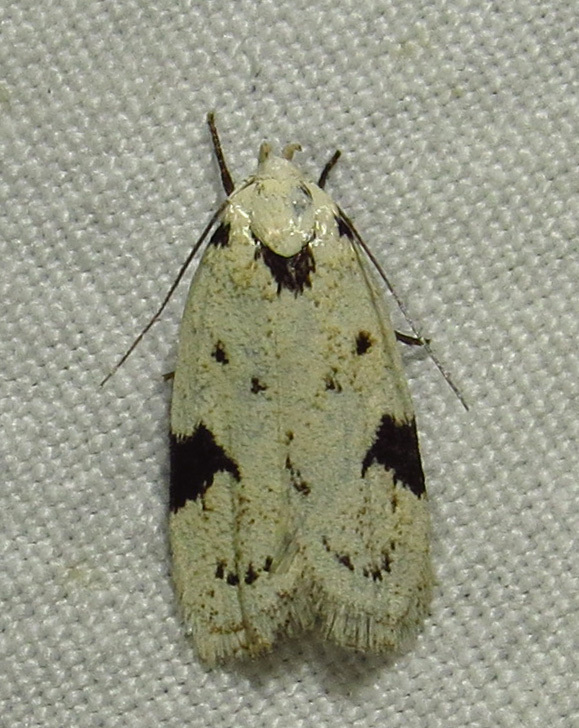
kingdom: Animalia
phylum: Arthropoda
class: Insecta
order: Lepidoptera
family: Oecophoridae
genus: Inga
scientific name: Inga sparsiciliella
